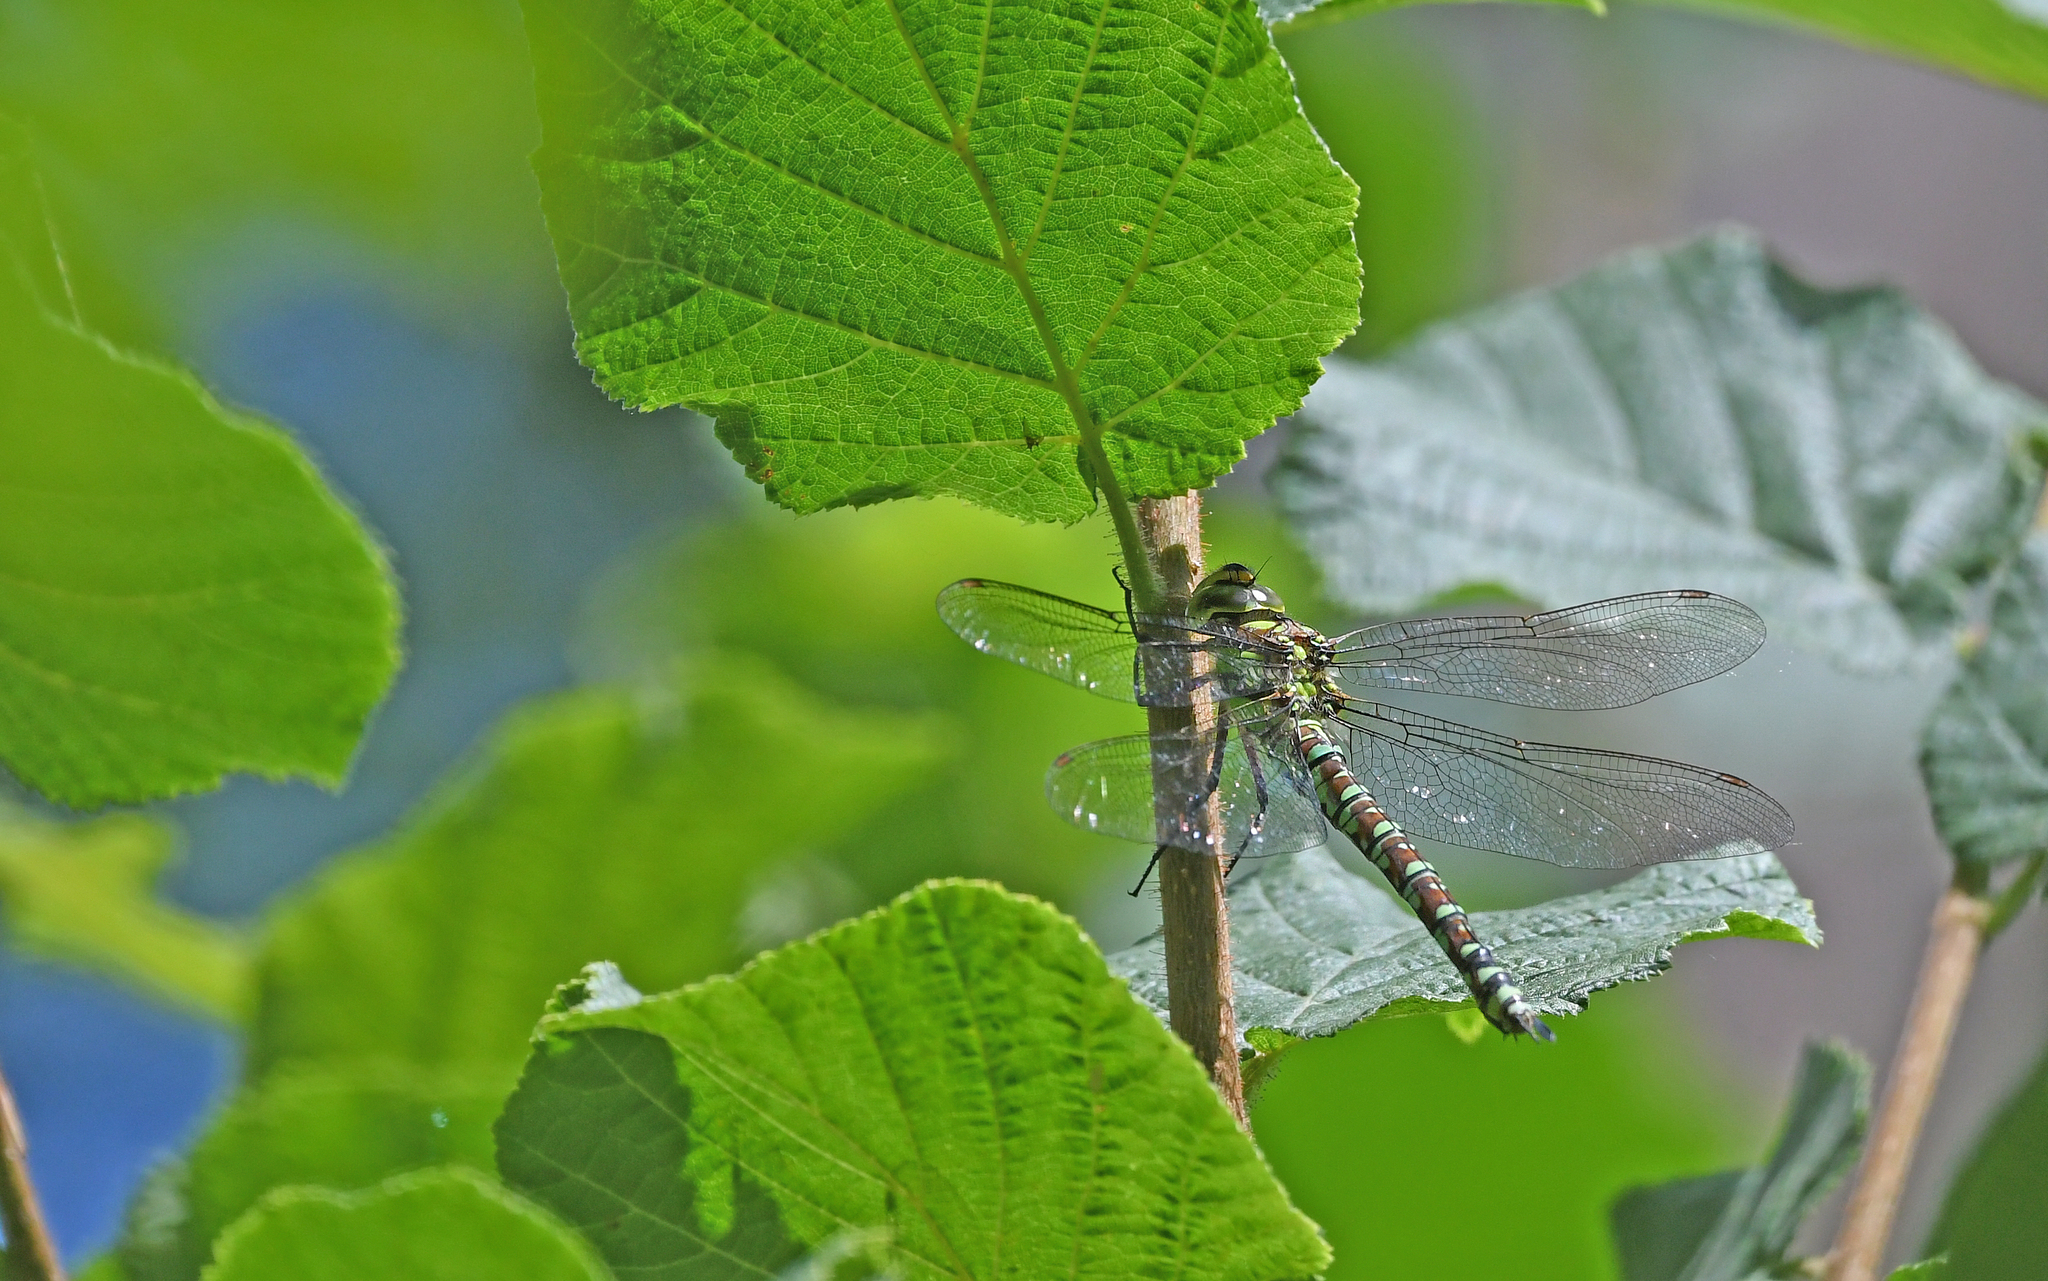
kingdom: Animalia
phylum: Arthropoda
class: Insecta
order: Odonata
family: Aeshnidae
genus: Aeshna
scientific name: Aeshna cyanea
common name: Southern hawker
